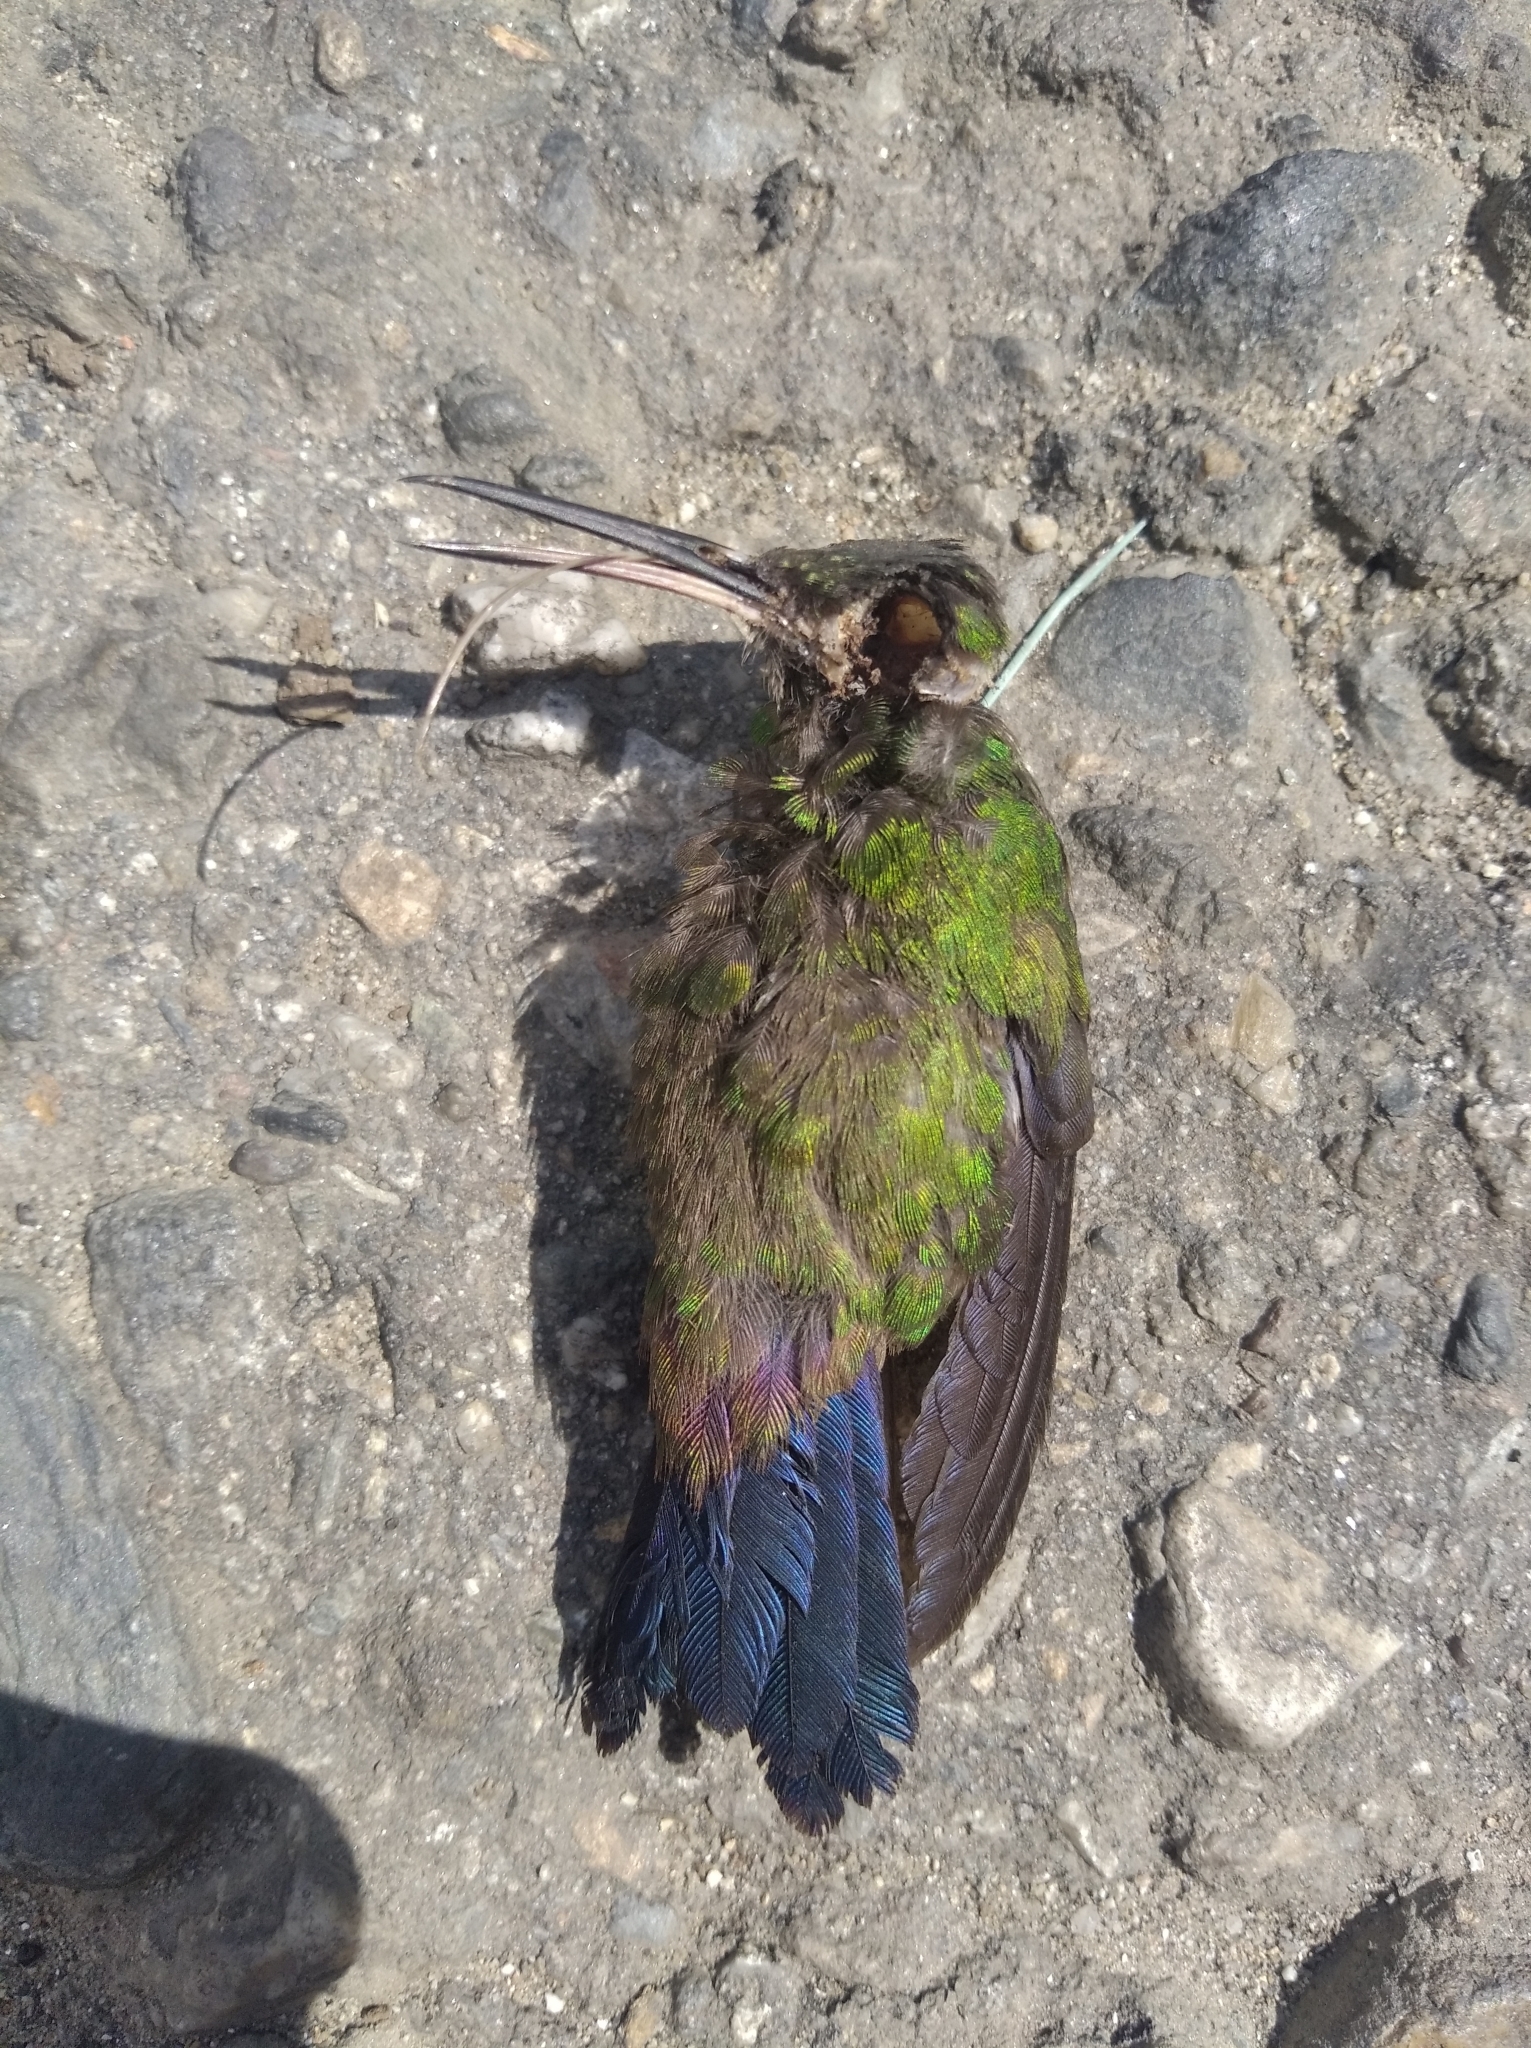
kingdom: Animalia
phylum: Chordata
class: Aves
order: Apodiformes
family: Trochilidae
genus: Saucerottia
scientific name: Saucerottia tobaci
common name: Copper-rumped hummingbird
